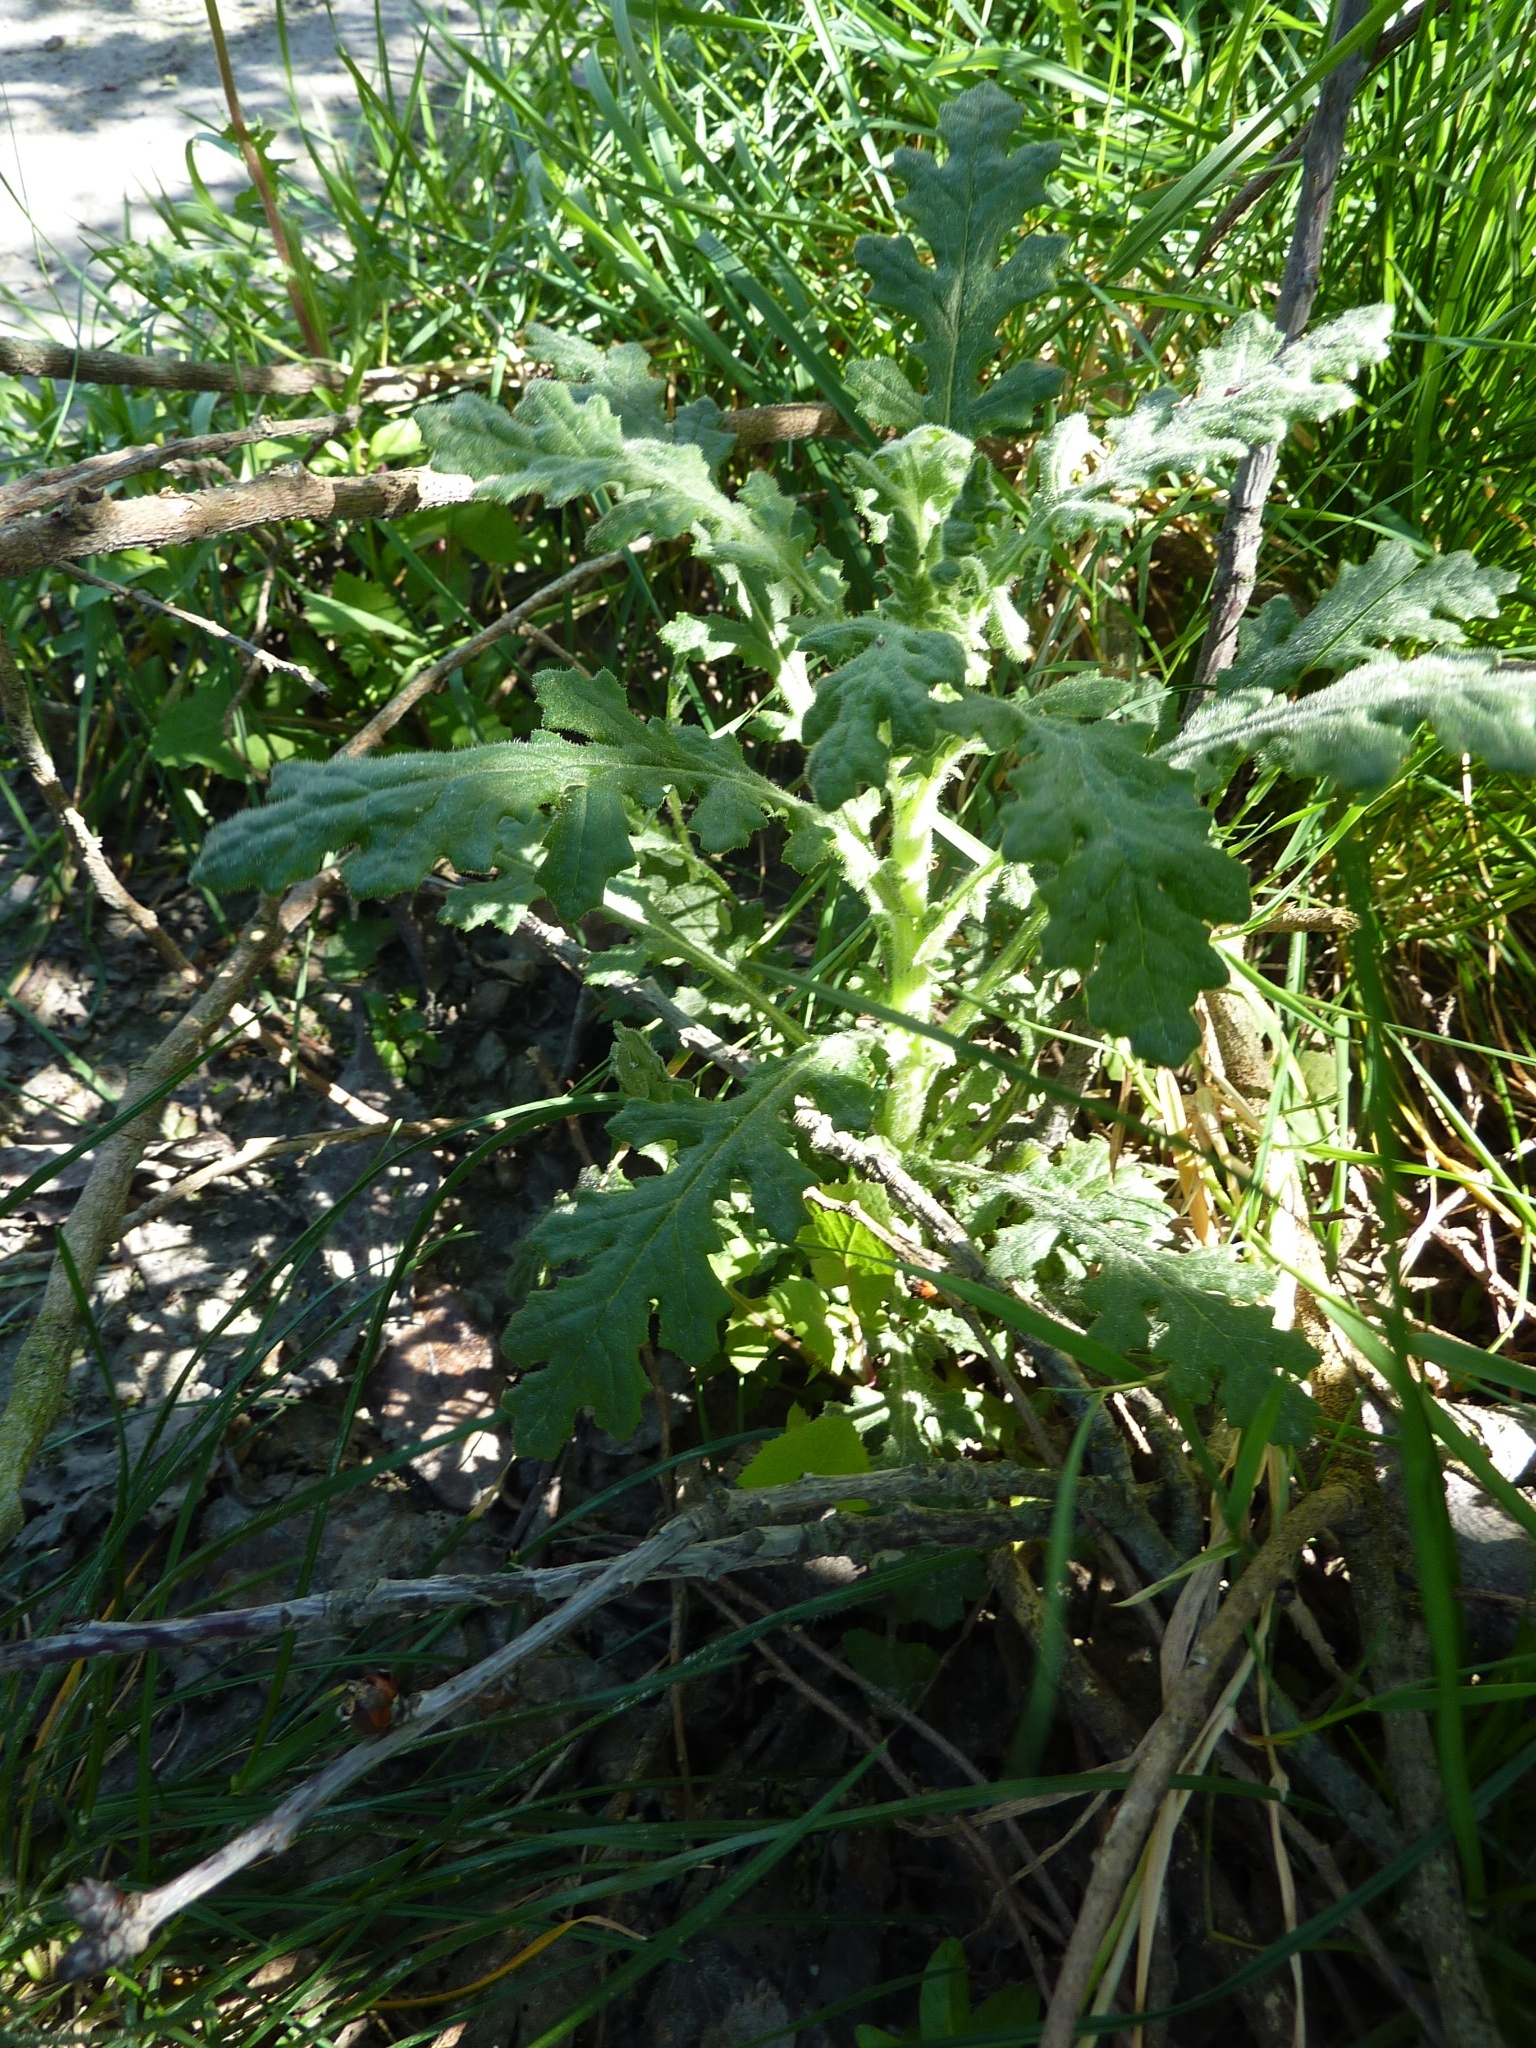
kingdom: Plantae
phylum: Tracheophyta
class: Magnoliopsida
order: Asterales
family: Asteraceae
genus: Senecio
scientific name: Senecio sylvaticus
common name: Woodland ragwort
